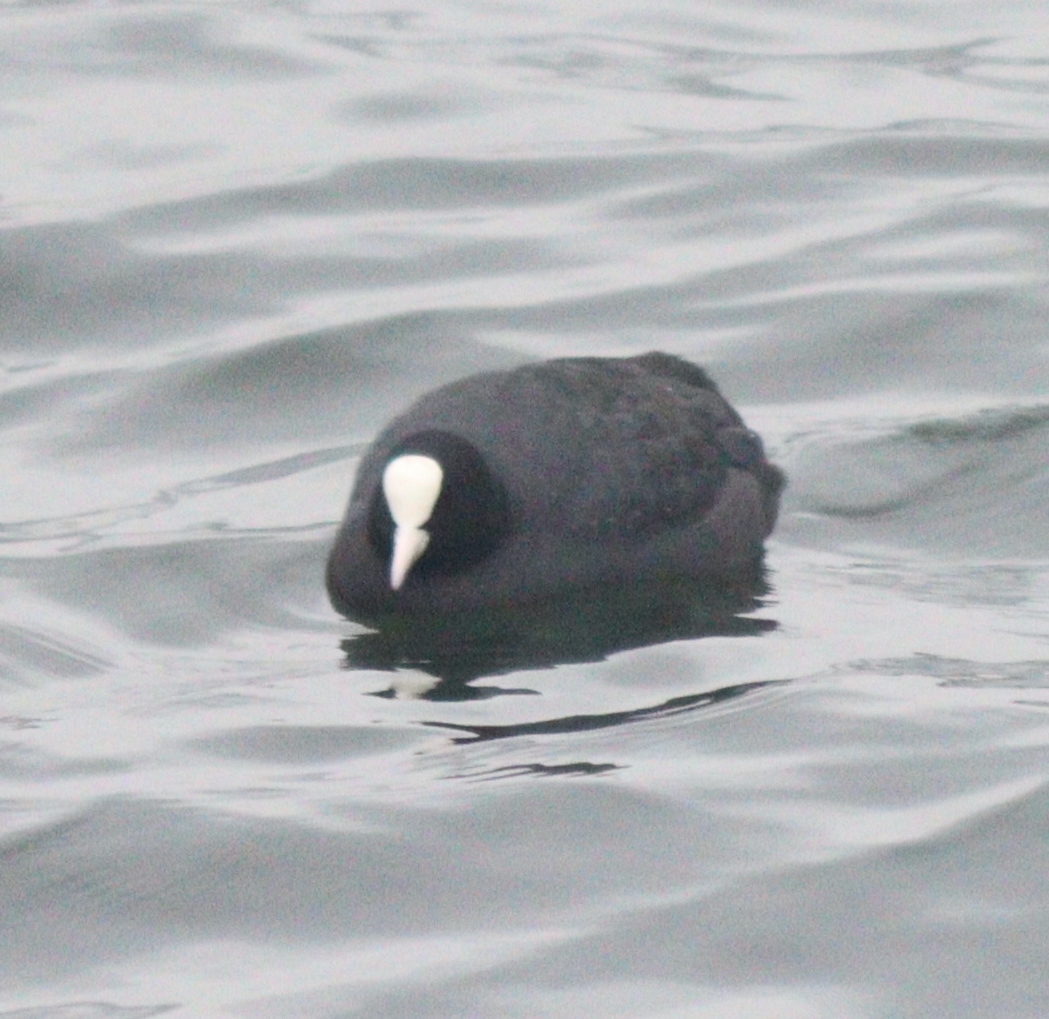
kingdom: Animalia
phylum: Chordata
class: Aves
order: Gruiformes
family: Rallidae
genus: Fulica
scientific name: Fulica atra
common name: Eurasian coot
